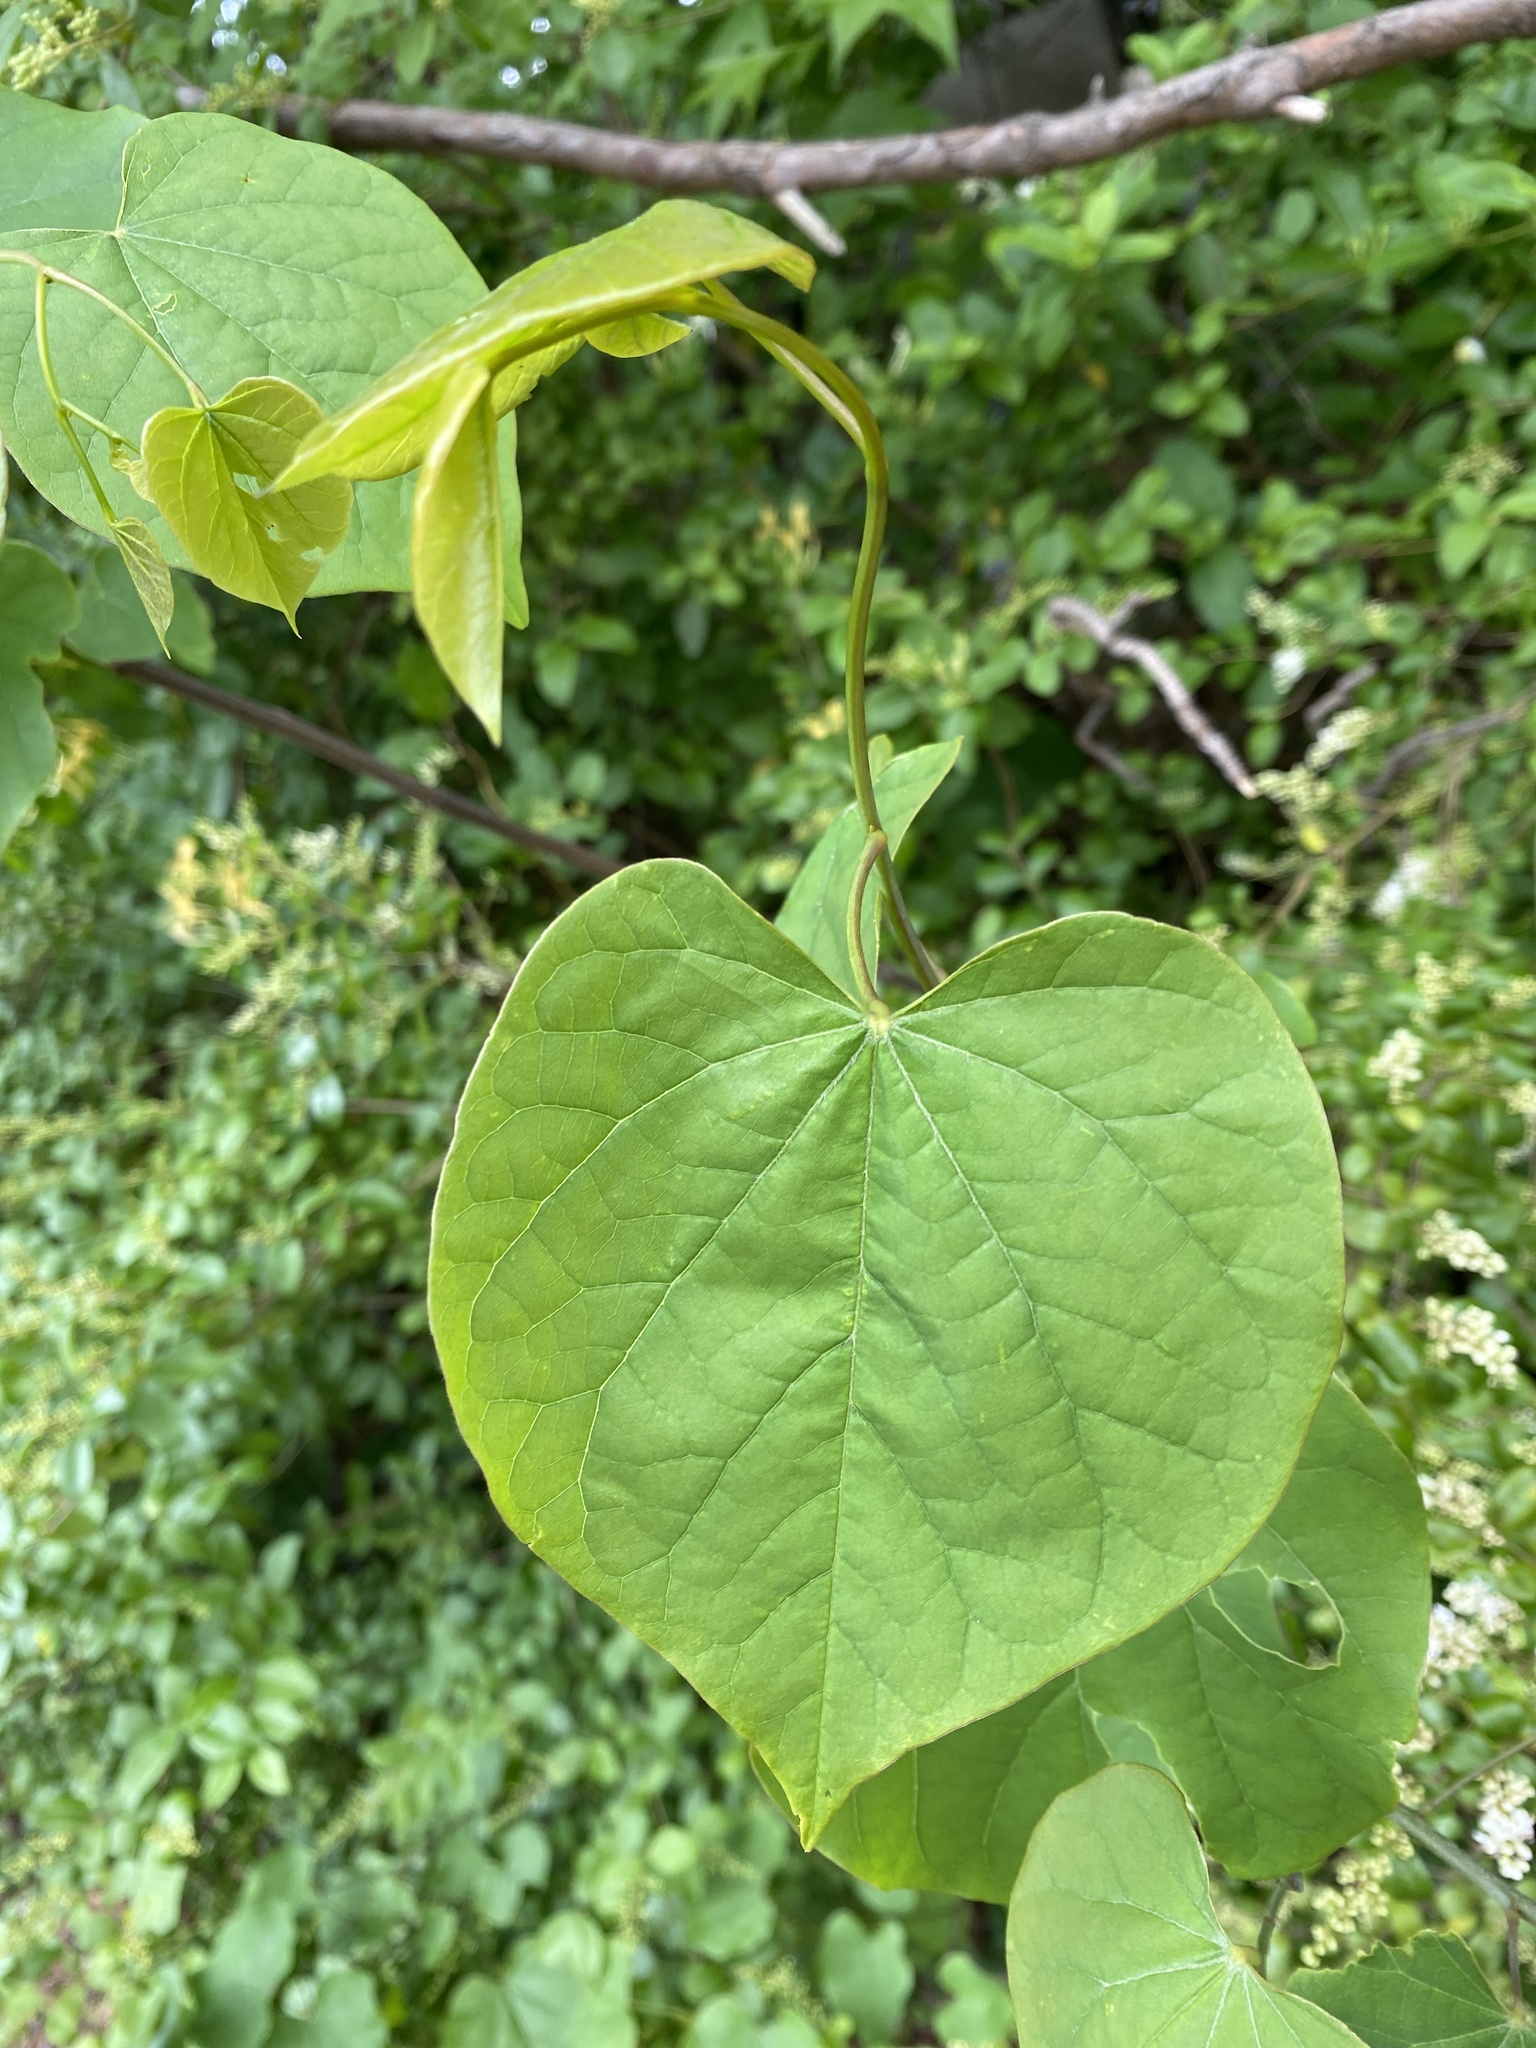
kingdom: Plantae
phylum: Tracheophyta
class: Magnoliopsida
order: Fabales
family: Fabaceae
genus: Cercis
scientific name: Cercis canadensis
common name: Eastern redbud
